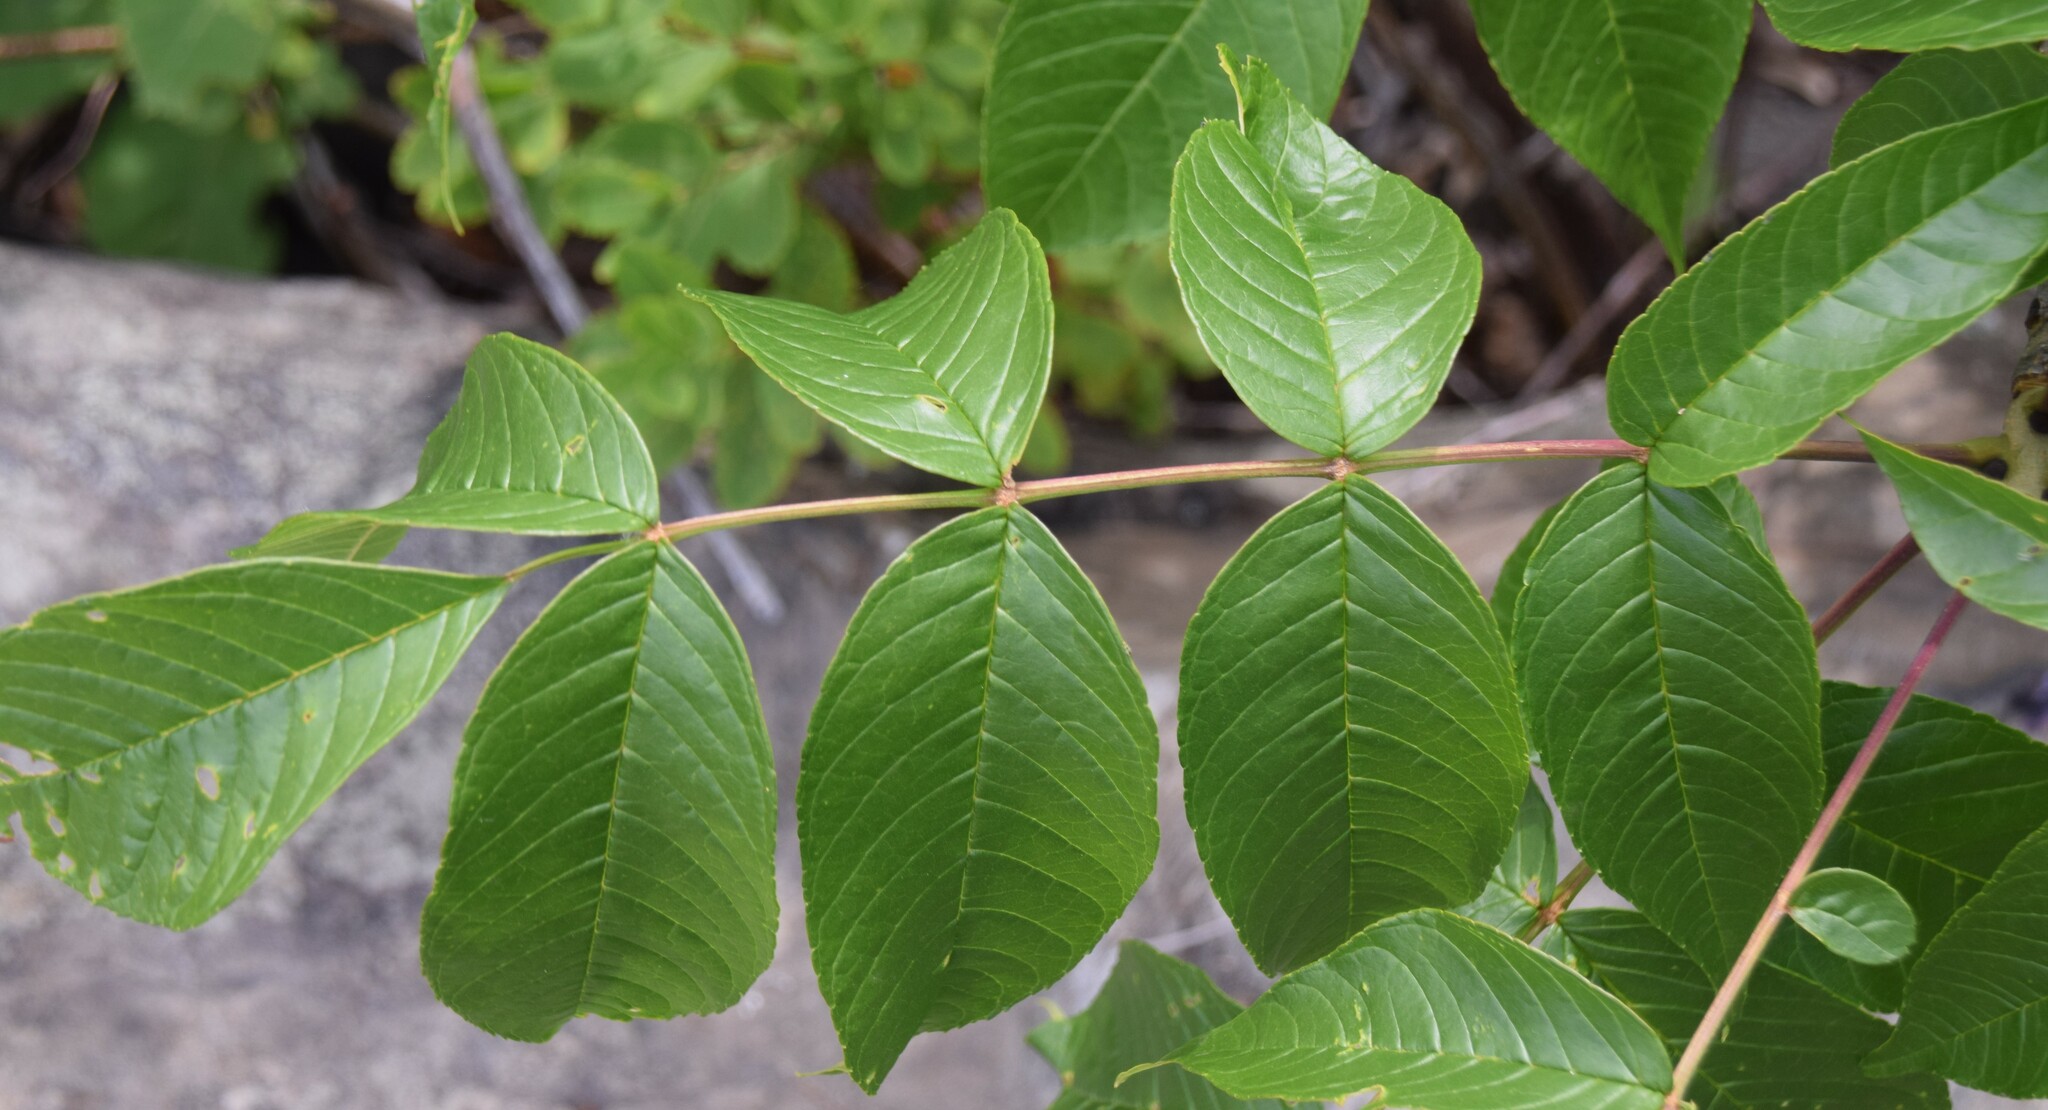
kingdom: Plantae
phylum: Tracheophyta
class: Magnoliopsida
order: Lamiales
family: Oleaceae
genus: Fraxinus
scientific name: Fraxinus nigra
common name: Black ash
